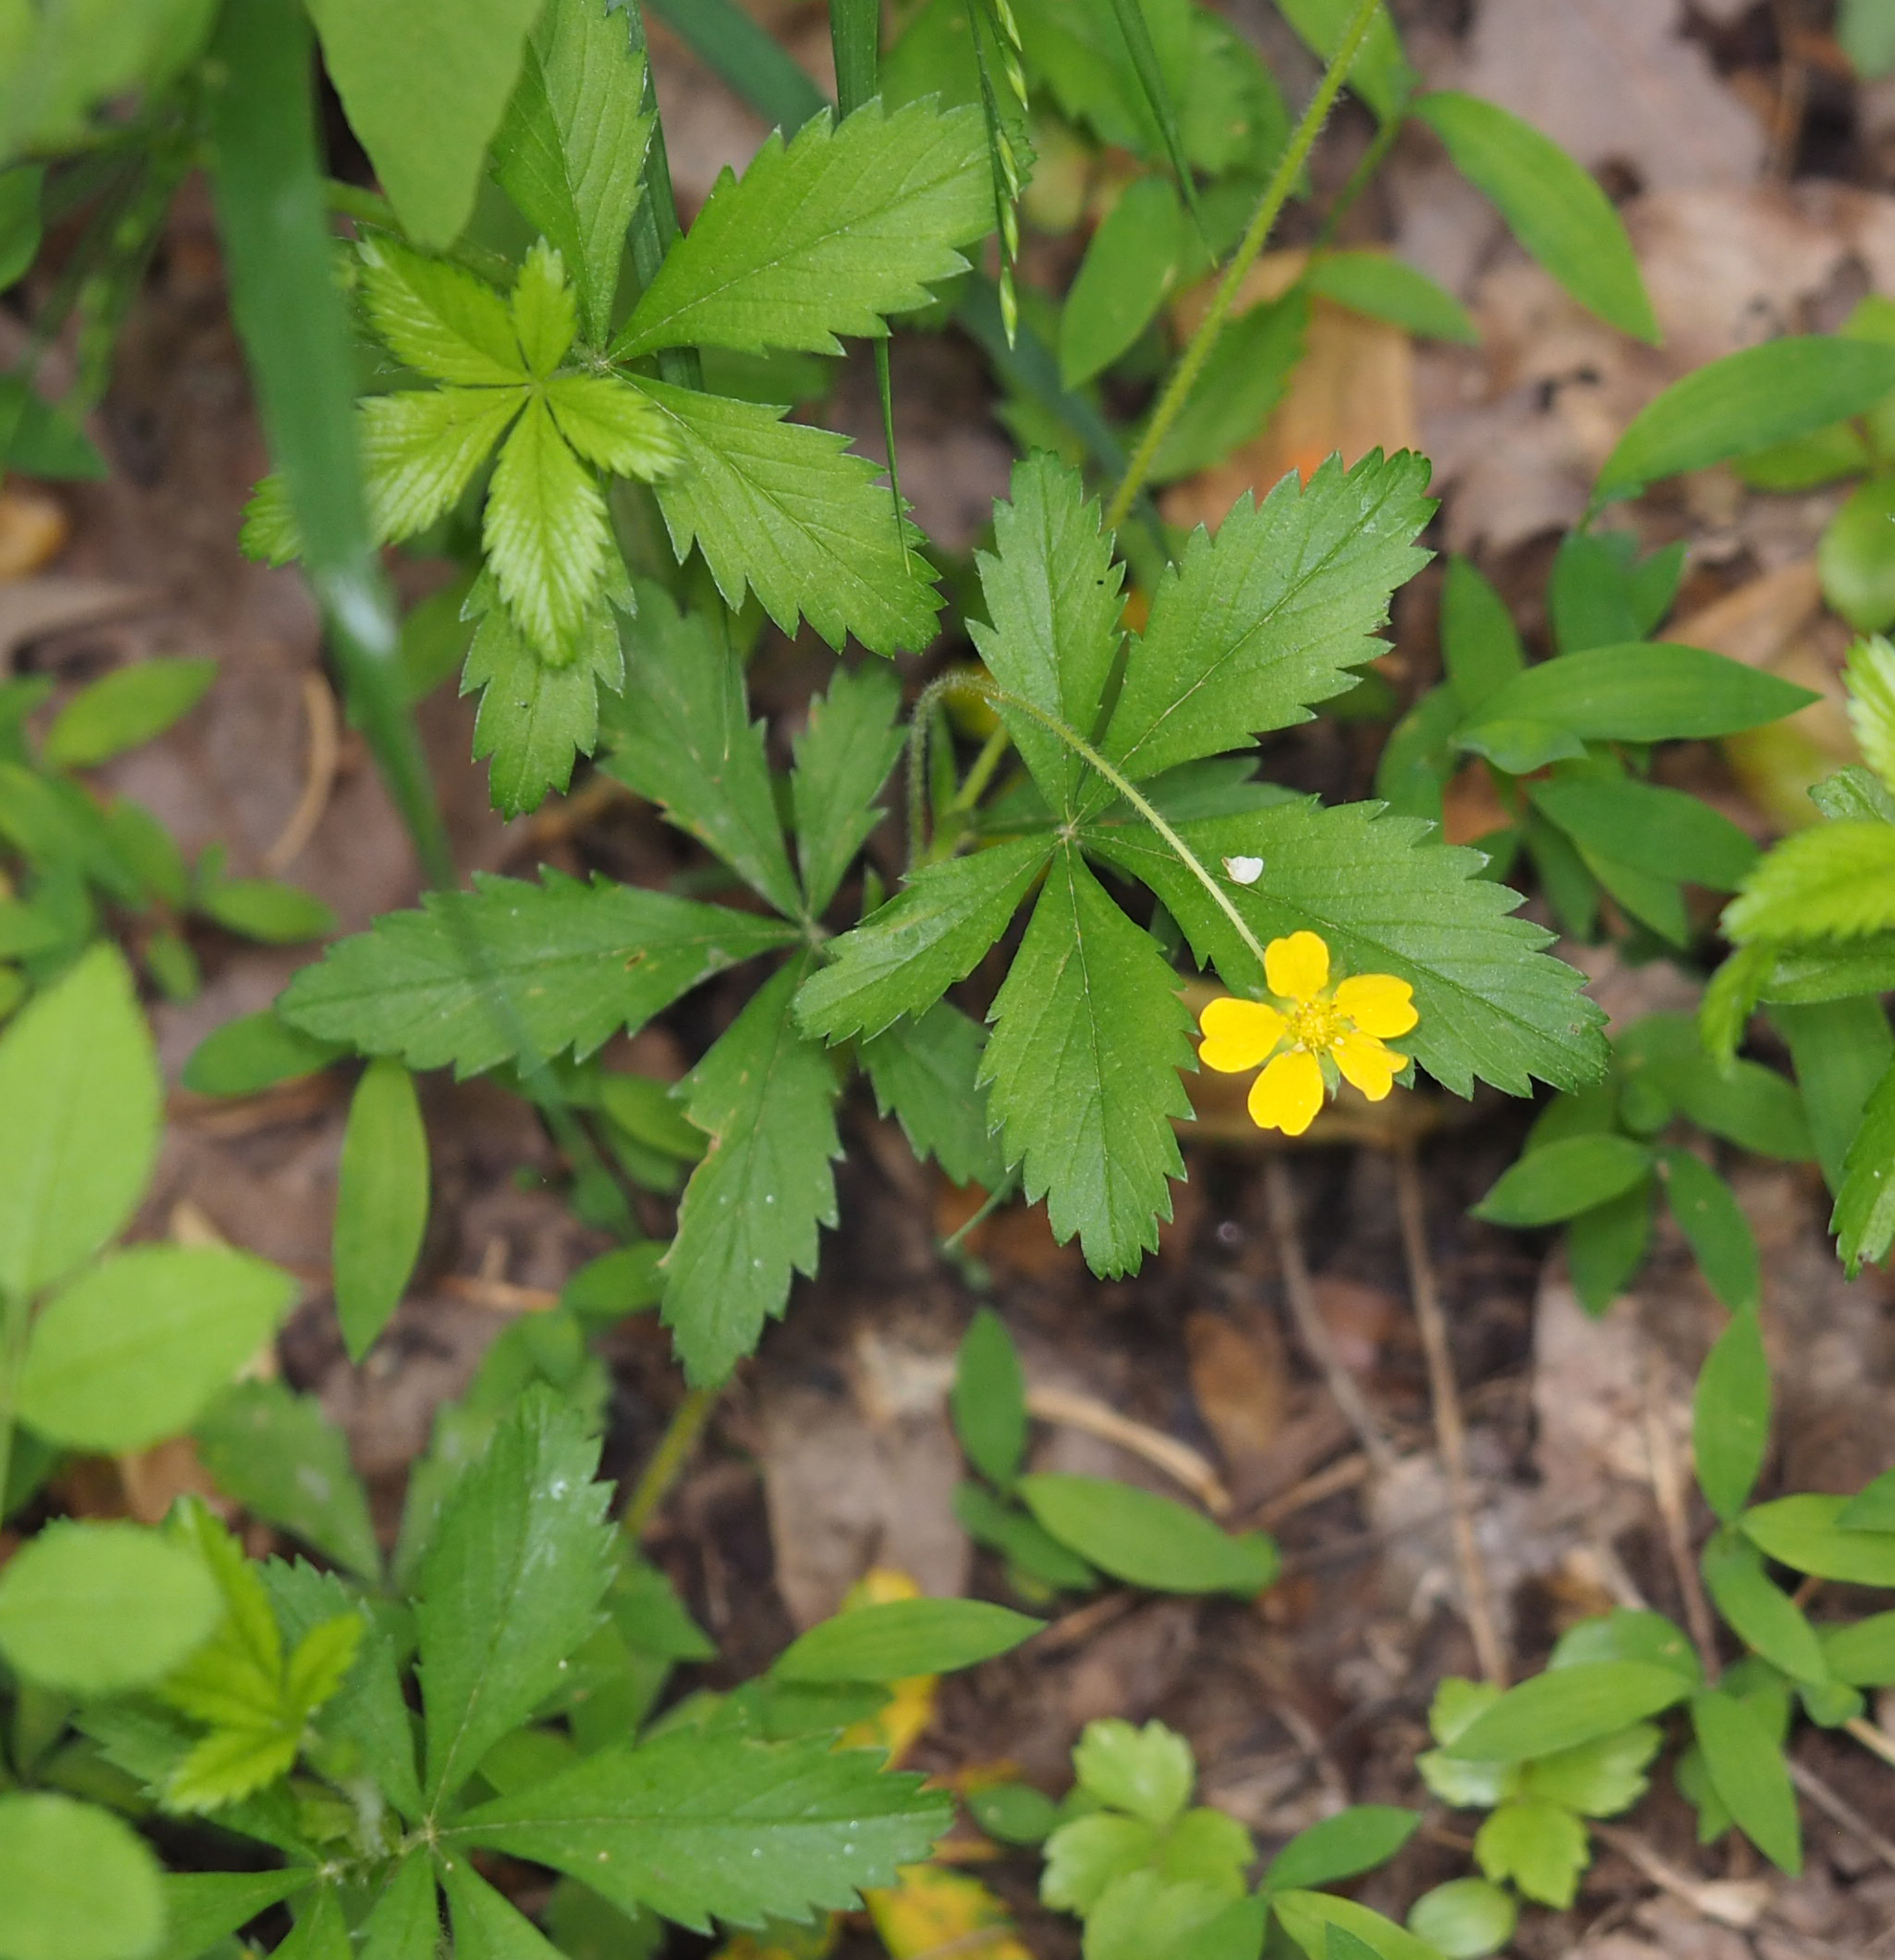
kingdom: Plantae
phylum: Tracheophyta
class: Magnoliopsida
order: Rosales
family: Rosaceae
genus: Potentilla
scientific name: Potentilla simplex
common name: Old field cinquefoil
